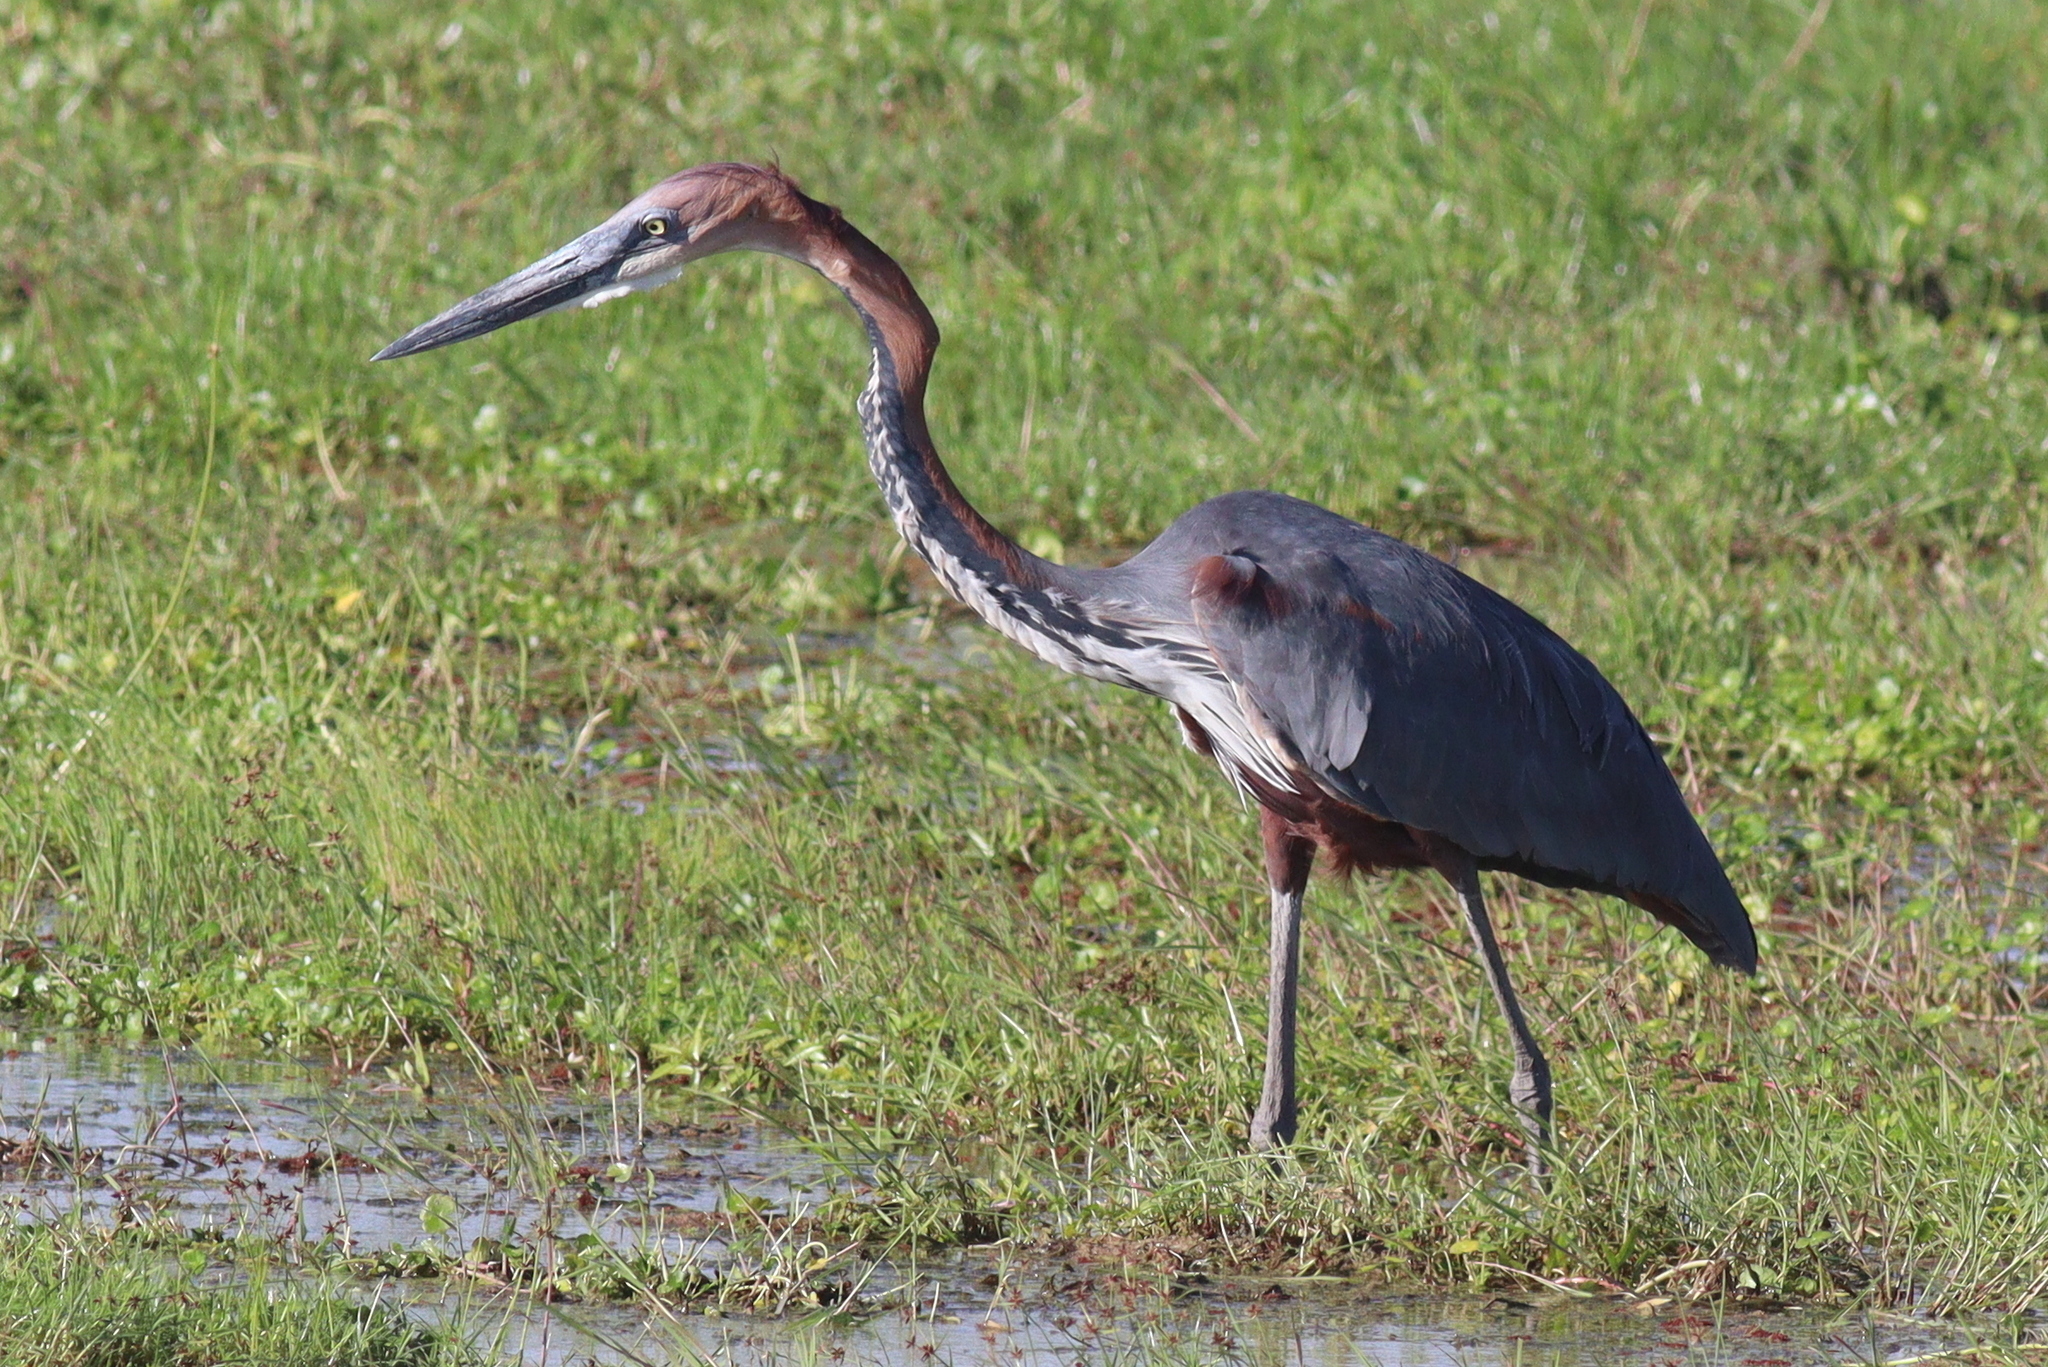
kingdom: Animalia
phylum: Chordata
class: Aves
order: Pelecaniformes
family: Ardeidae
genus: Ardea
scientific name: Ardea goliath
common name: Goliath heron
